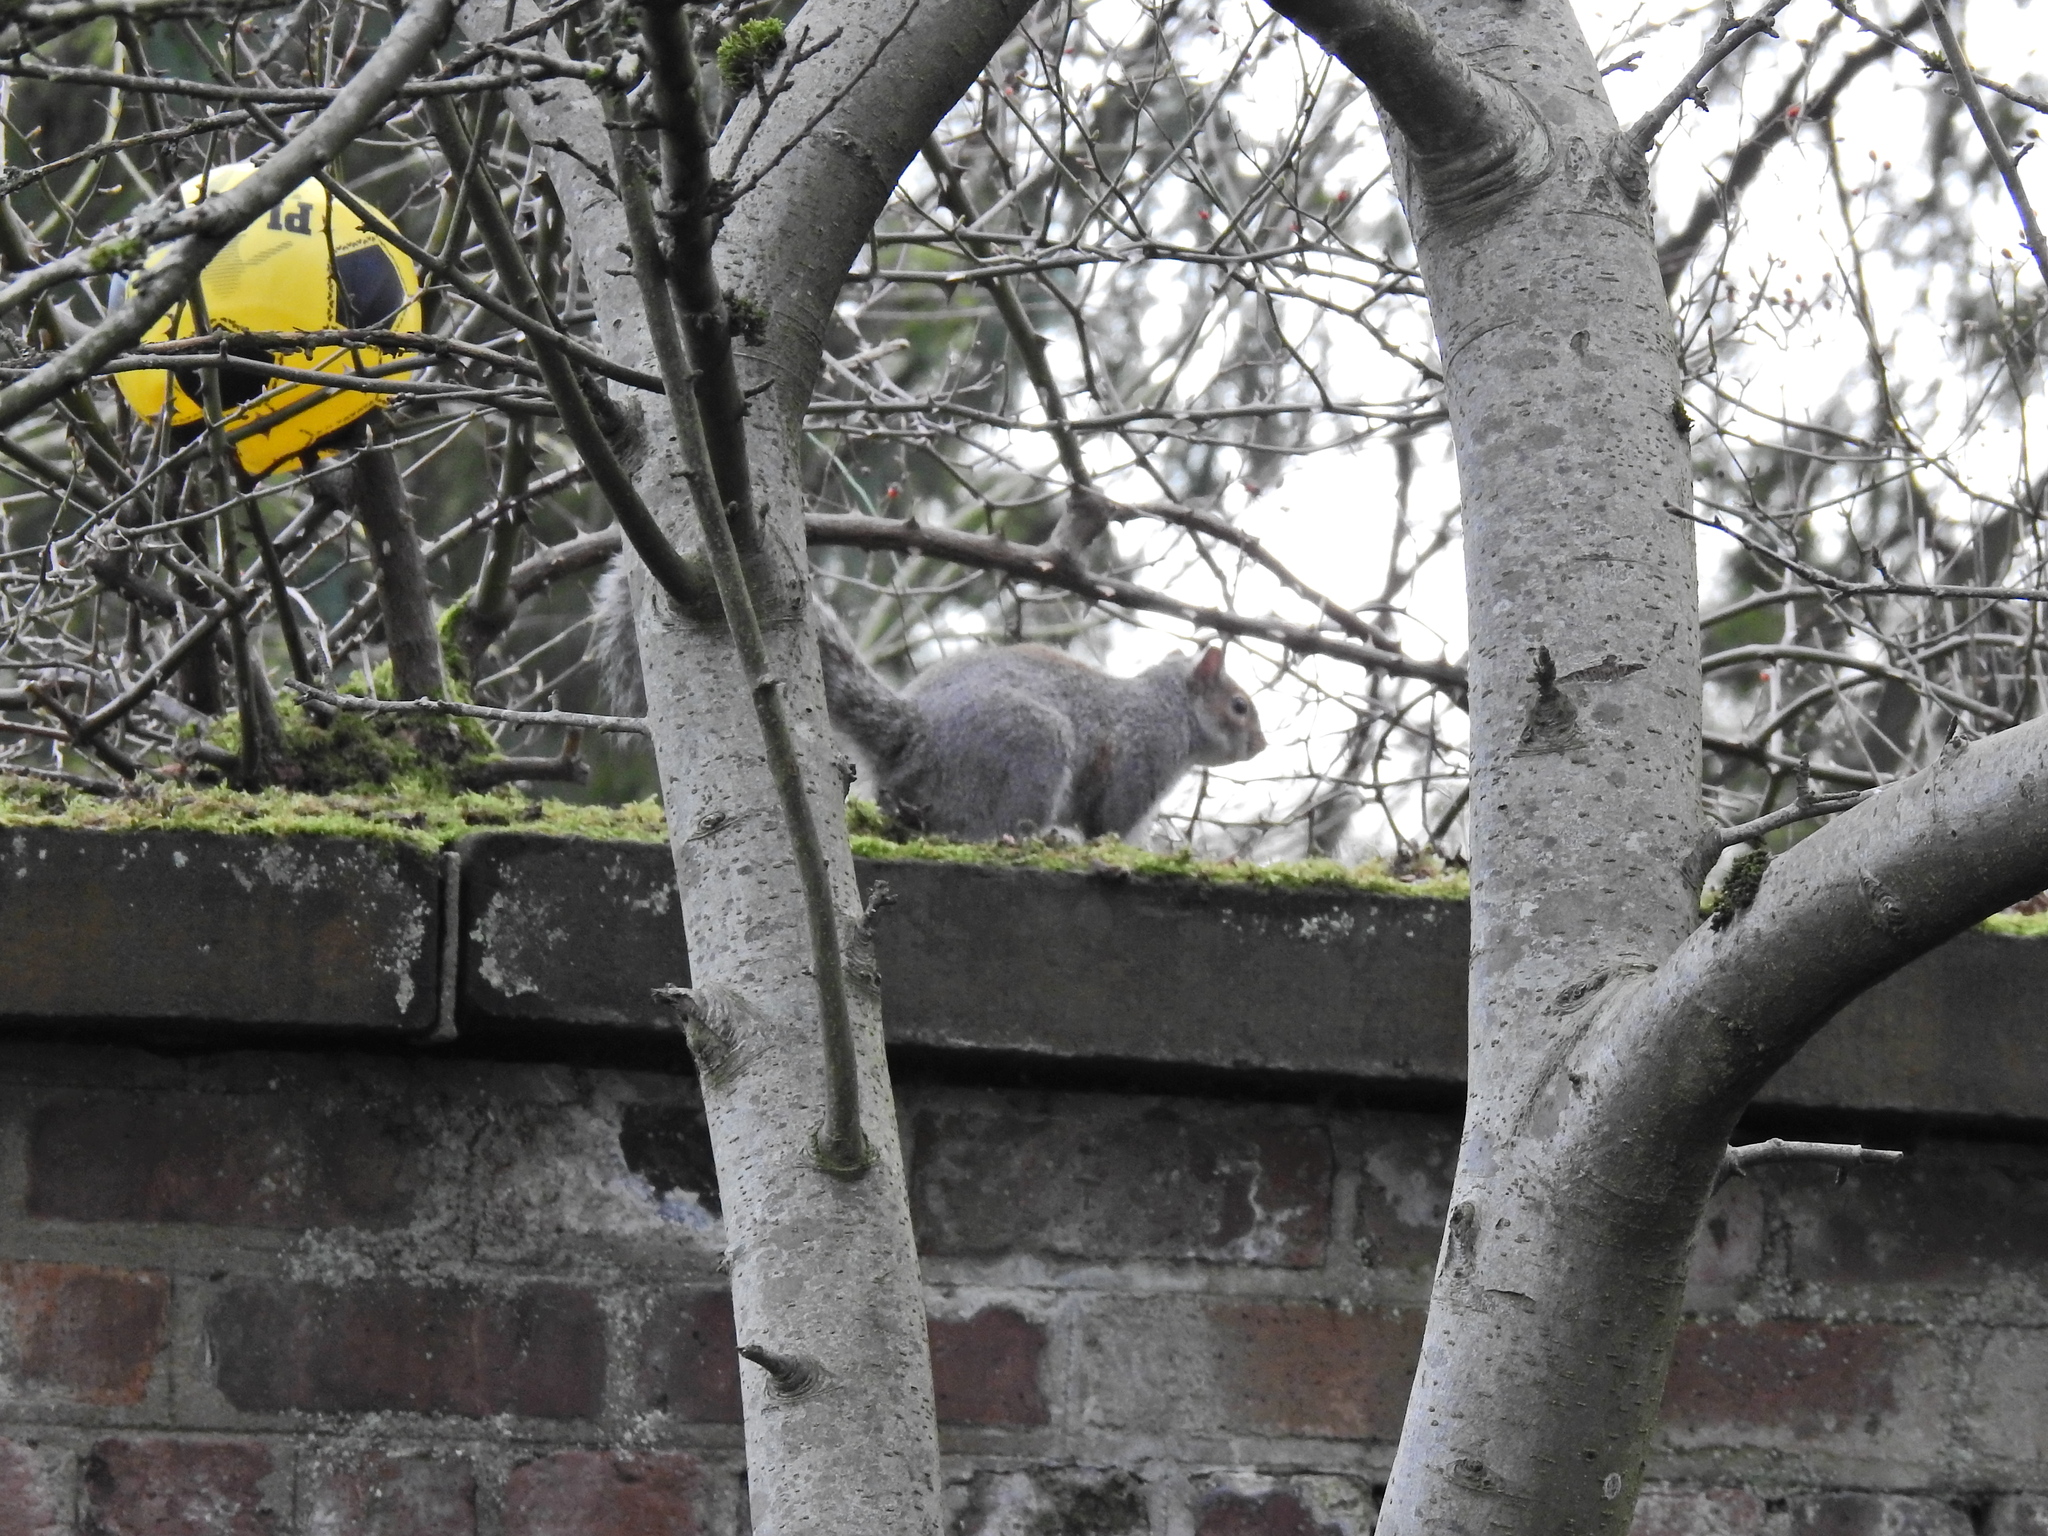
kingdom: Animalia
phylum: Chordata
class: Mammalia
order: Rodentia
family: Sciuridae
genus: Sciurus
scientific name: Sciurus carolinensis
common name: Eastern gray squirrel
